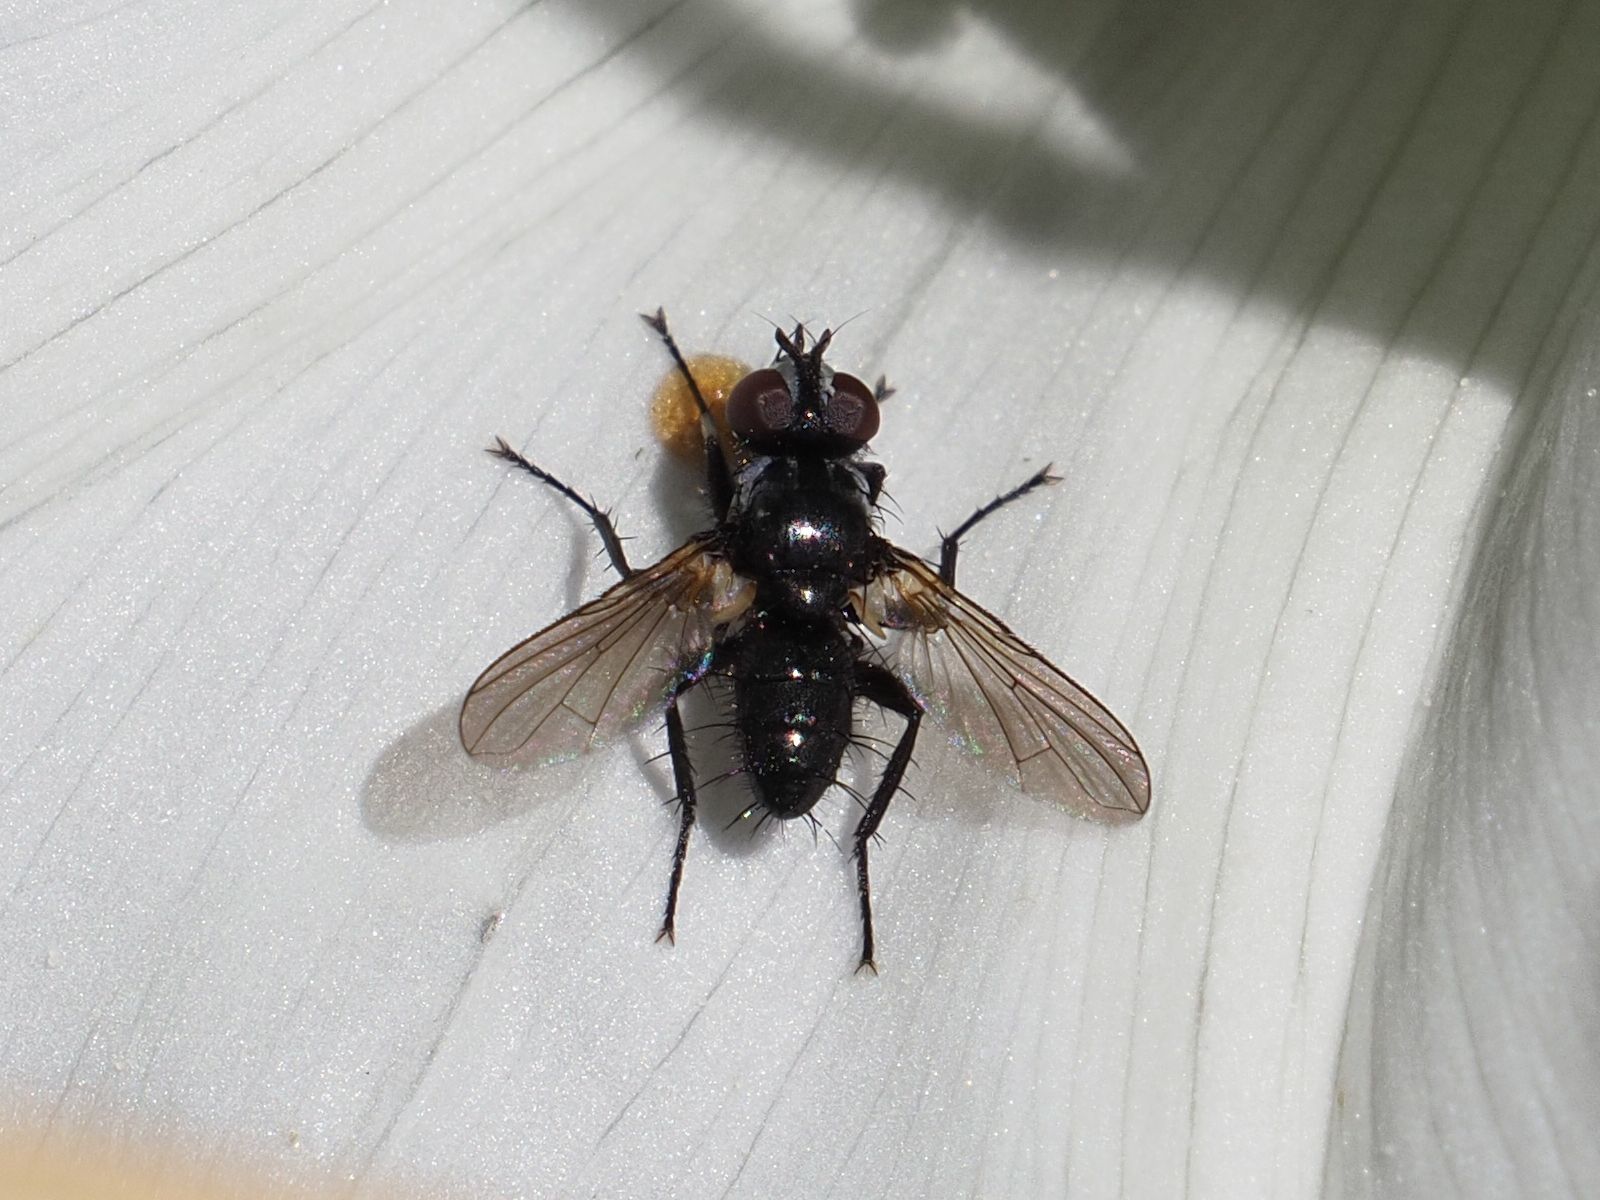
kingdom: Animalia
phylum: Arthropoda
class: Insecta
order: Diptera
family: Tachinidae
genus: Phania
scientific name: Phania funesta
